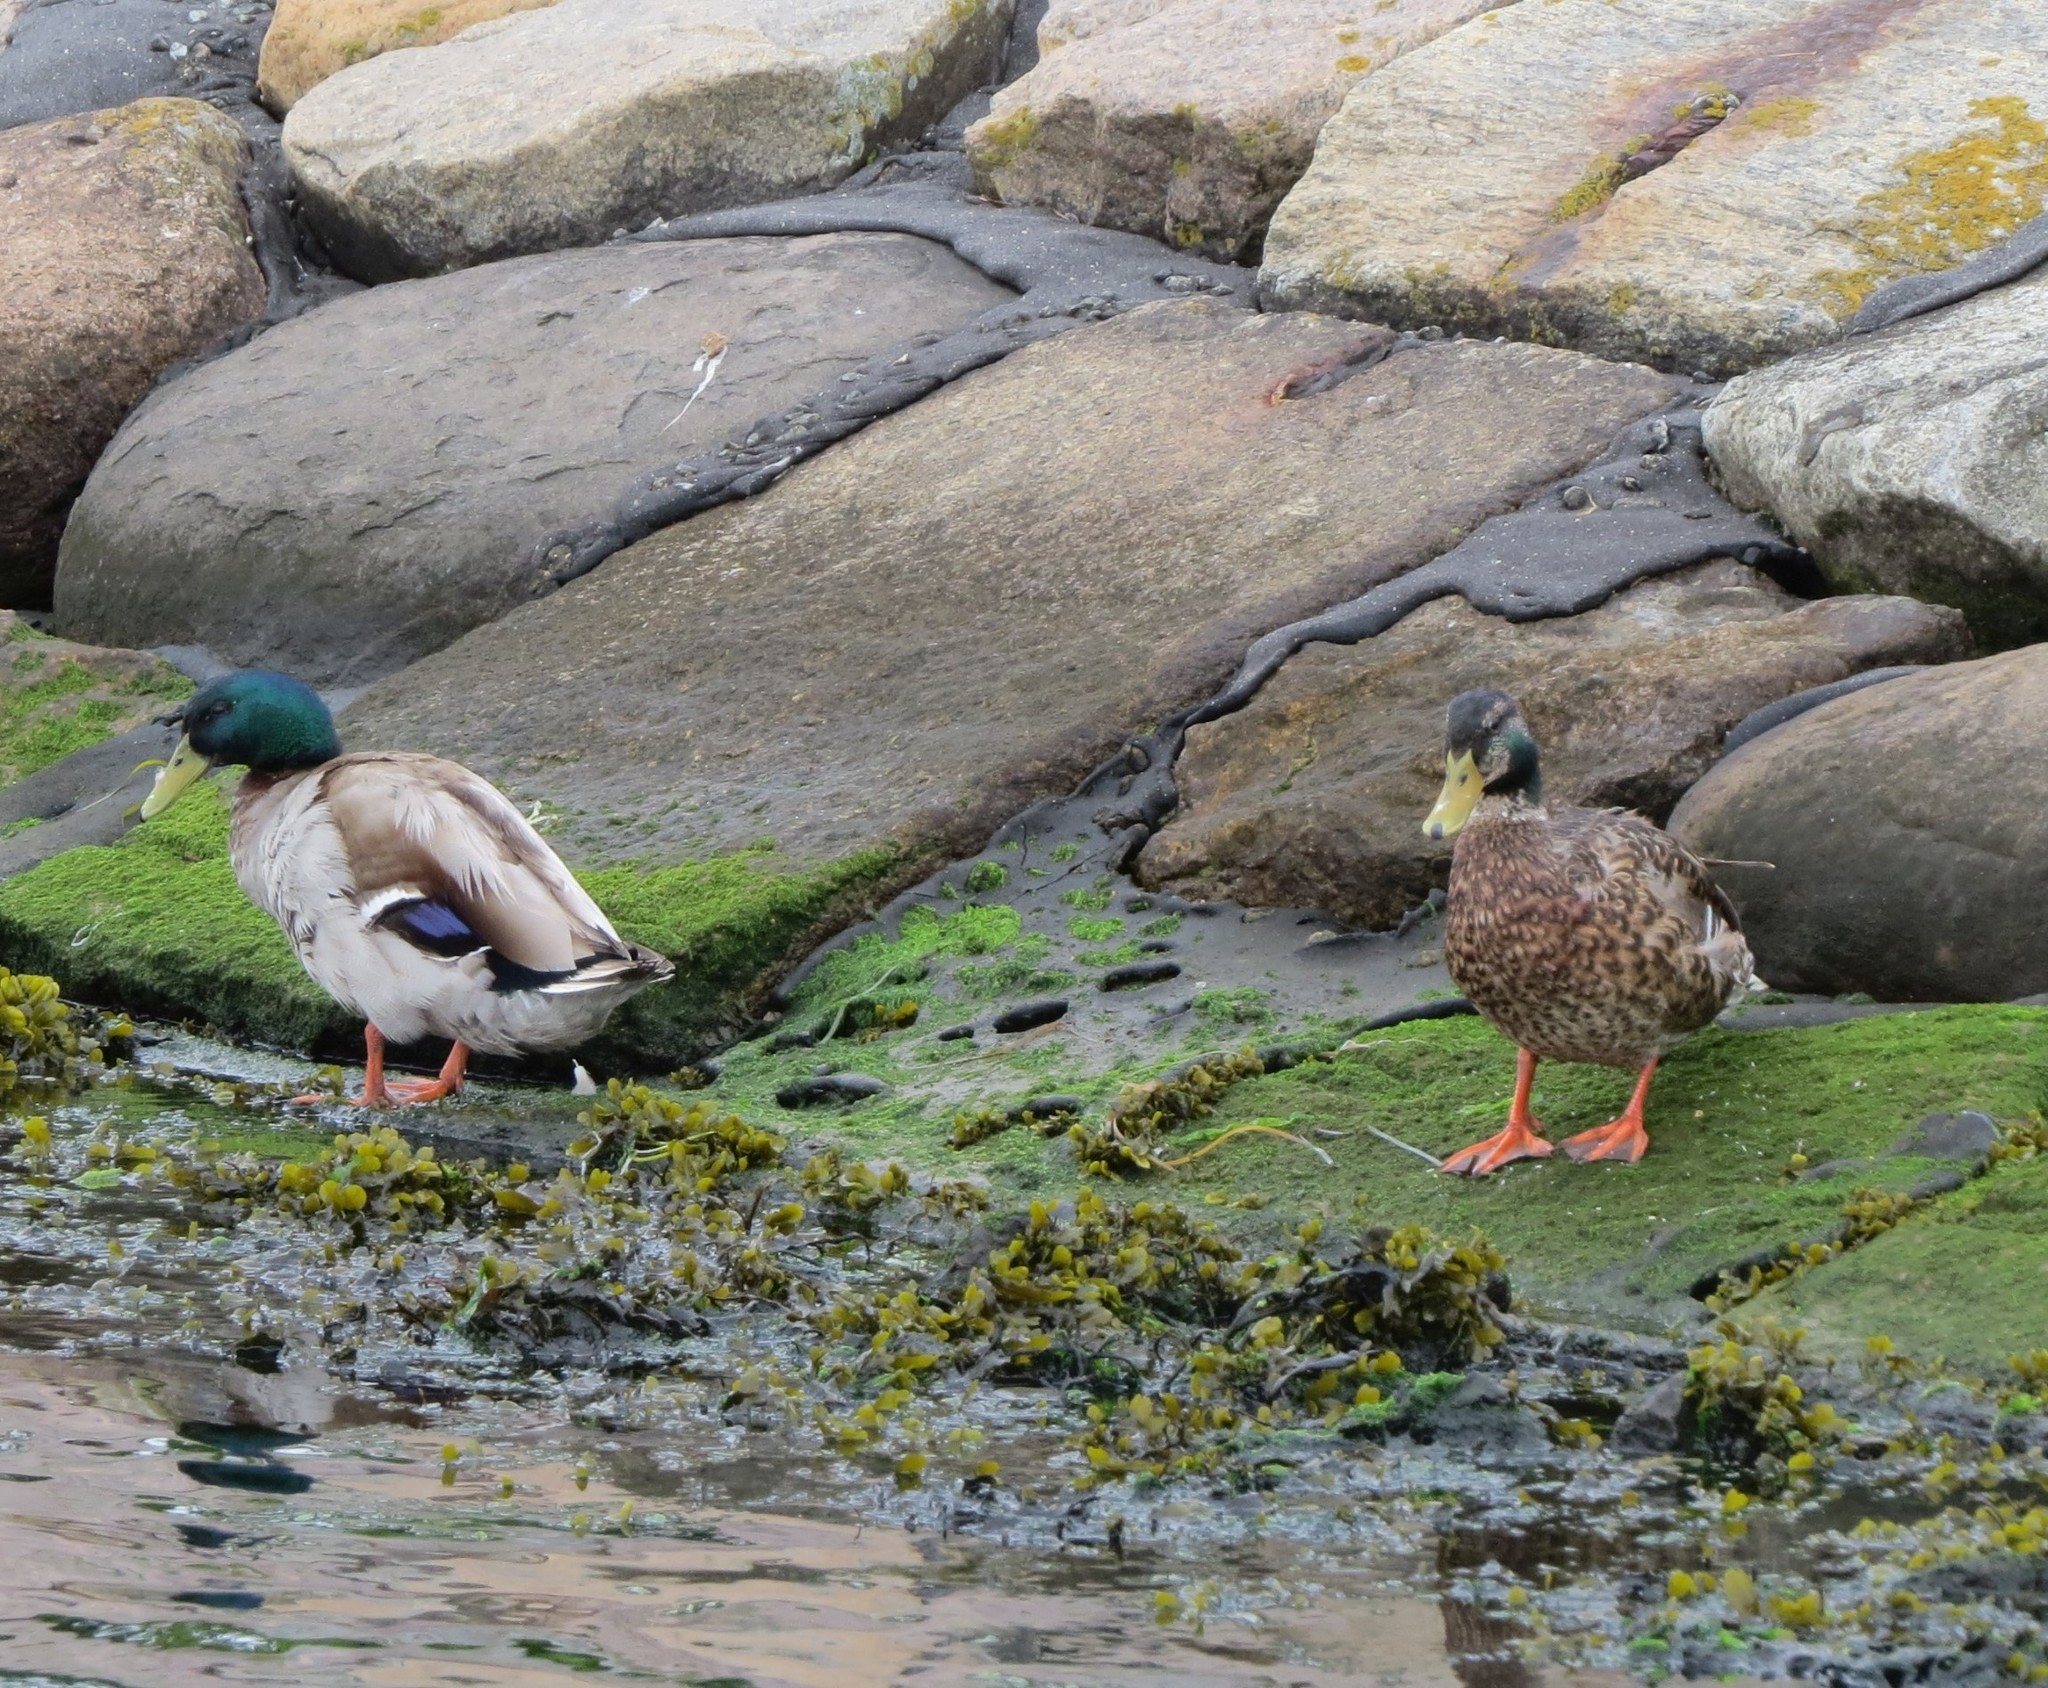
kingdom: Animalia
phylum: Chordata
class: Aves
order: Anseriformes
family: Anatidae
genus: Anas
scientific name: Anas platyrhynchos
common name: Mallard
